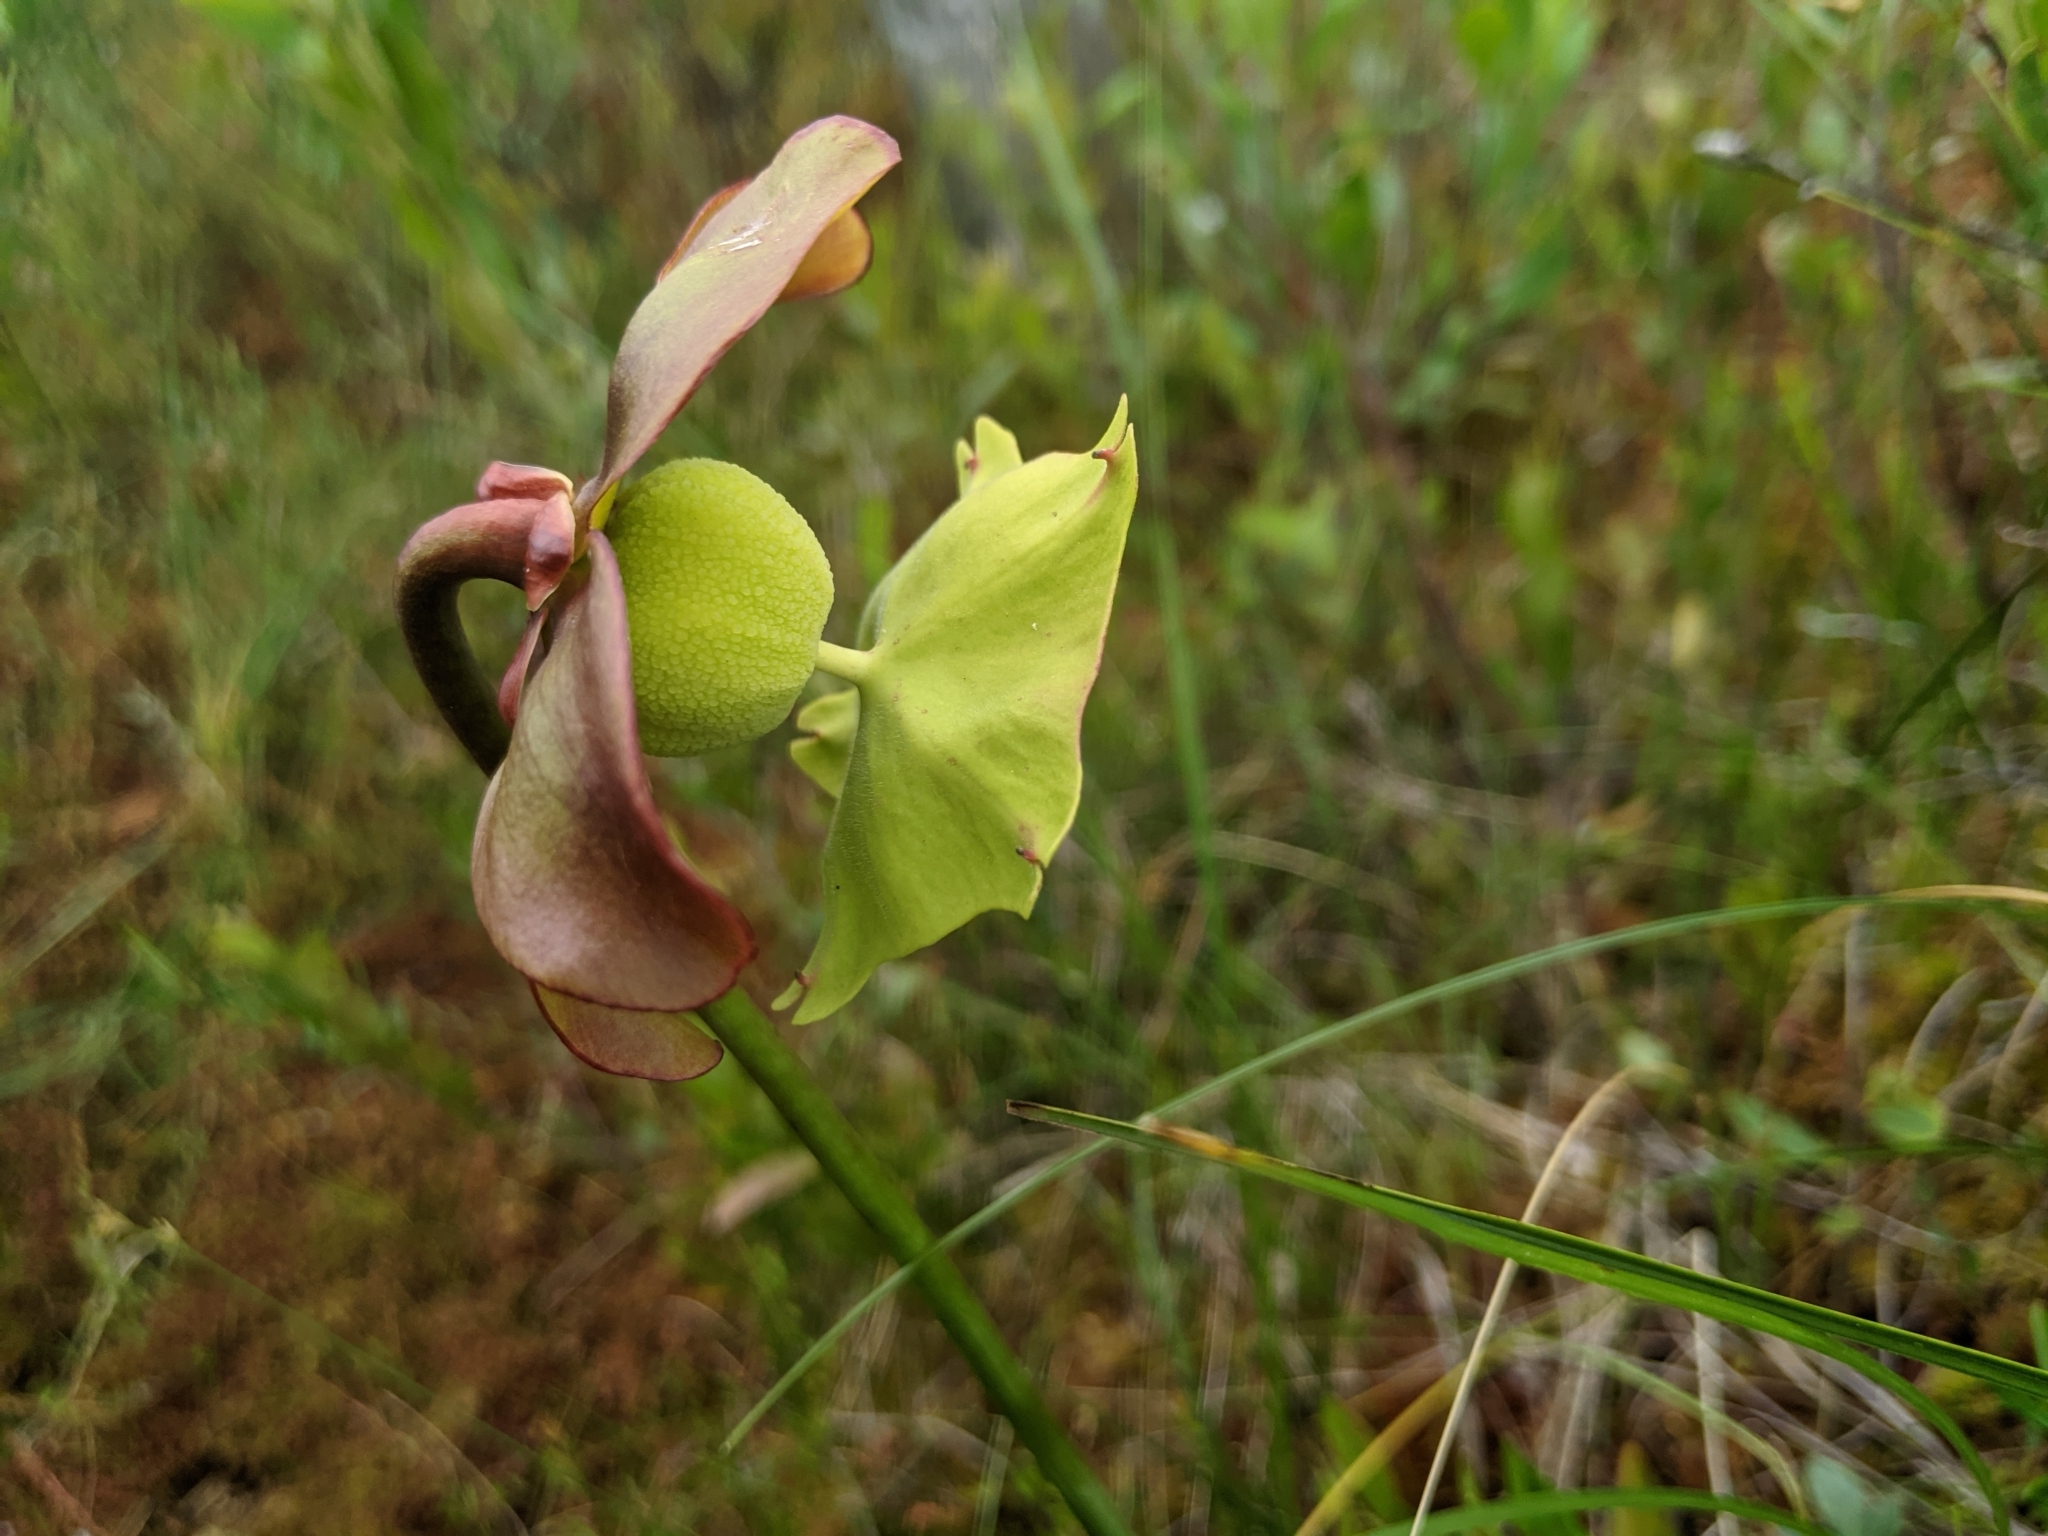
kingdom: Plantae
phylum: Tracheophyta
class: Magnoliopsida
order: Ericales
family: Sarraceniaceae
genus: Sarracenia
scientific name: Sarracenia purpurea
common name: Pitcherplant
